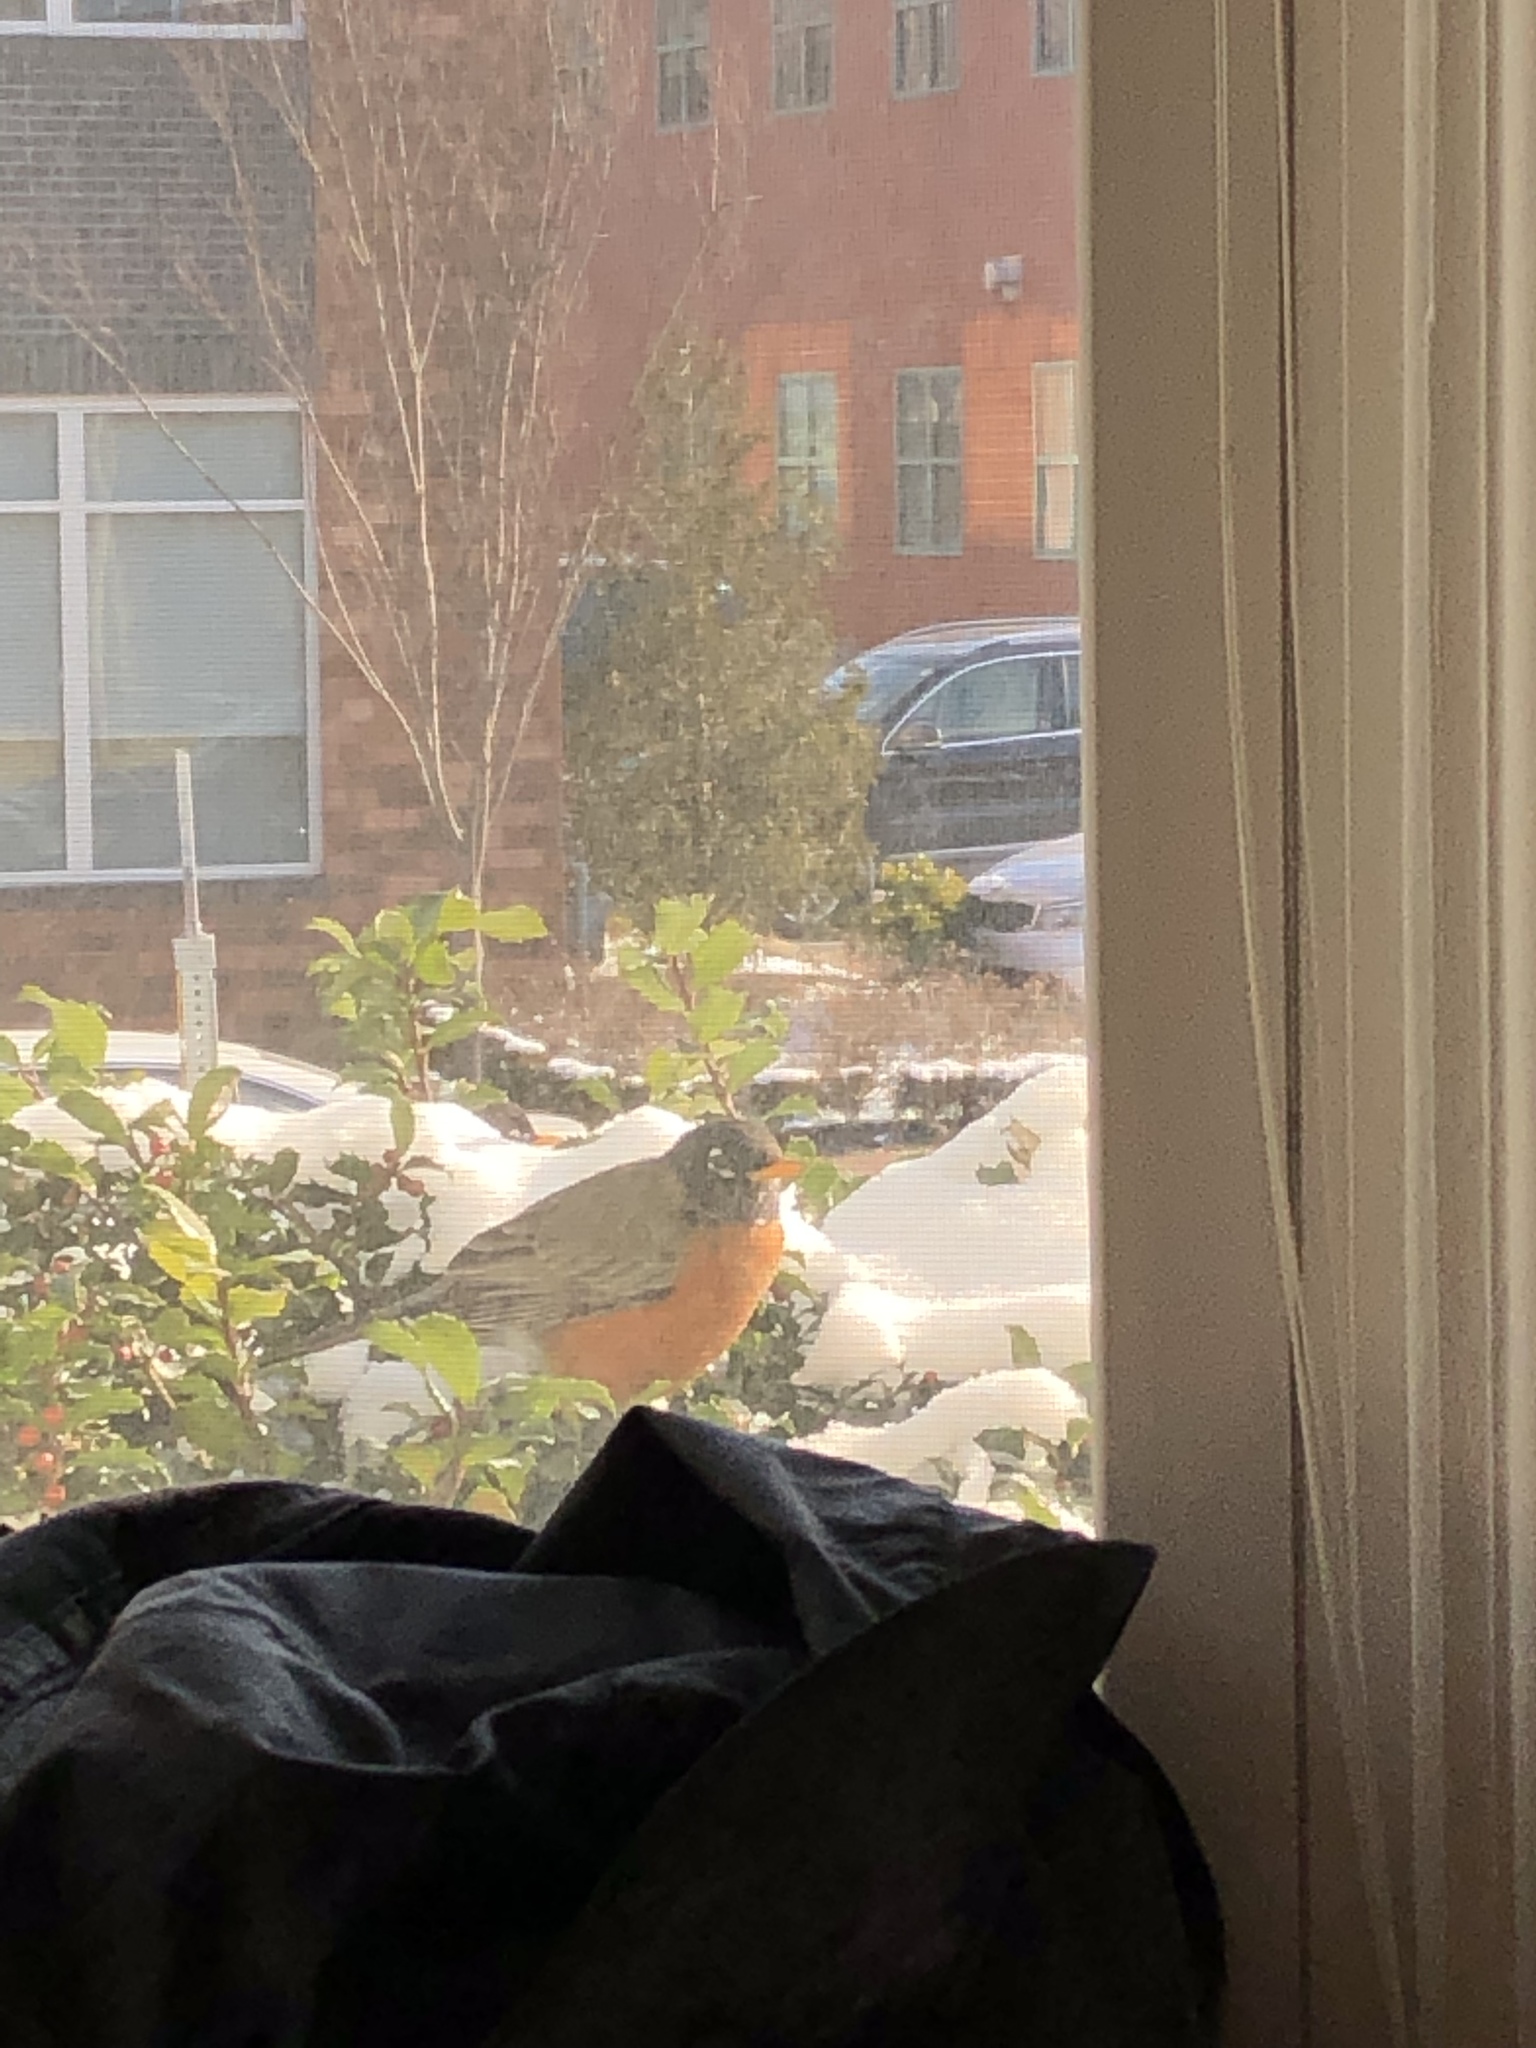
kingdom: Animalia
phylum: Chordata
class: Aves
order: Passeriformes
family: Turdidae
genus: Turdus
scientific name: Turdus migratorius
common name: American robin
